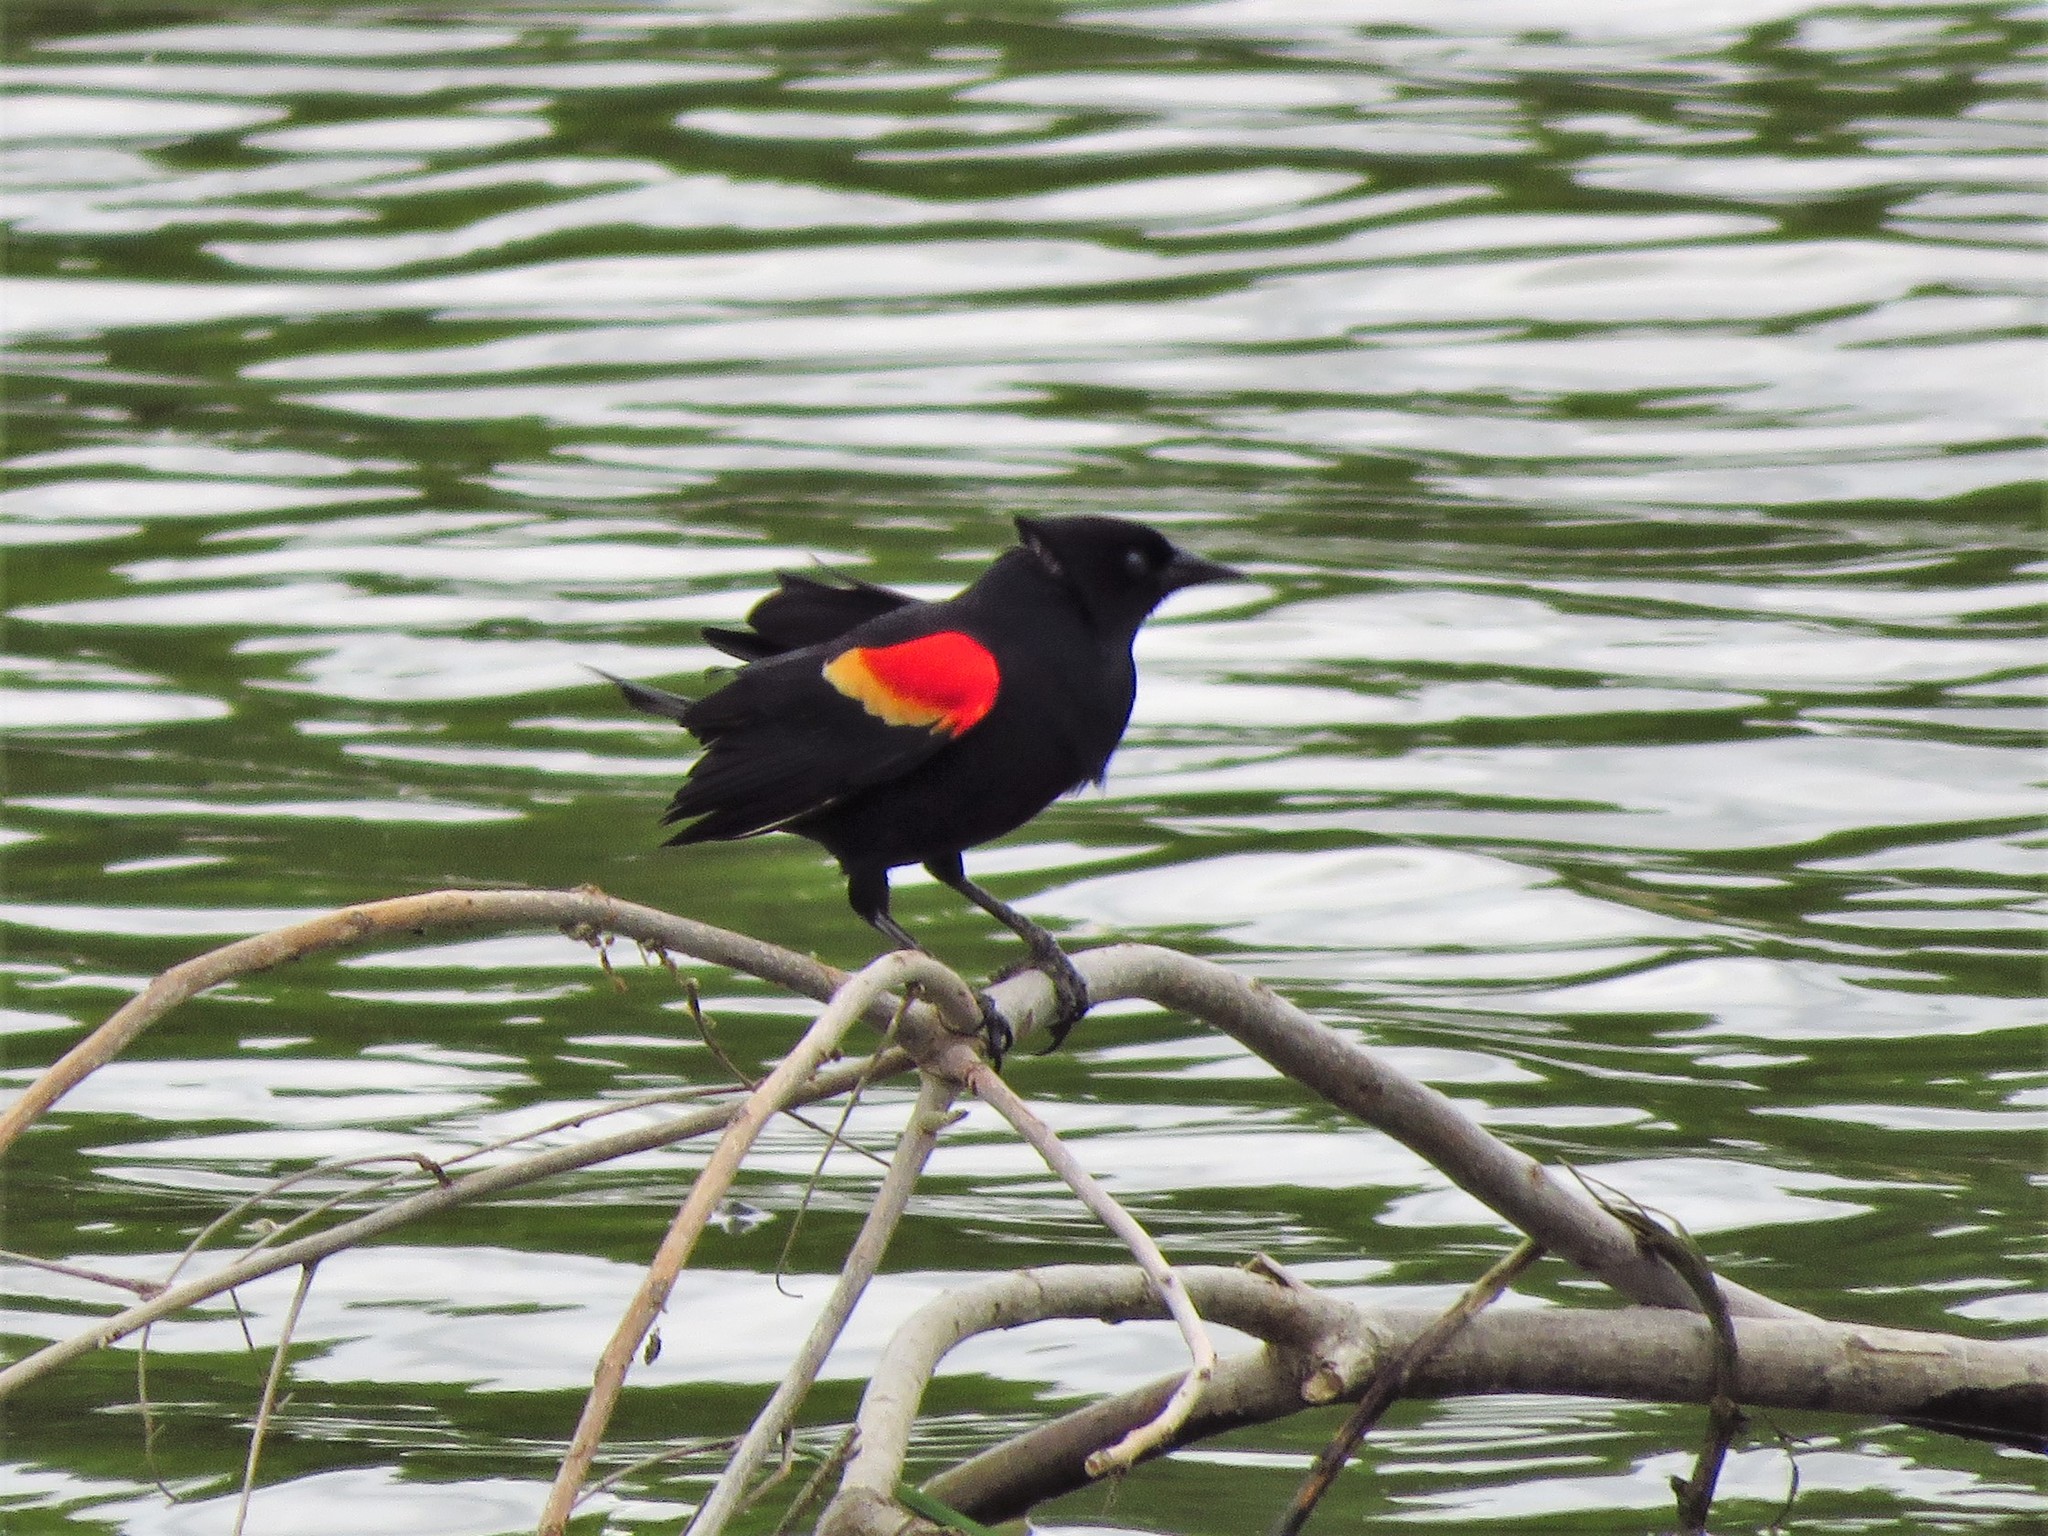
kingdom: Animalia
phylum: Chordata
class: Aves
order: Passeriformes
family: Icteridae
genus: Agelaius
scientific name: Agelaius phoeniceus
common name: Red-winged blackbird
